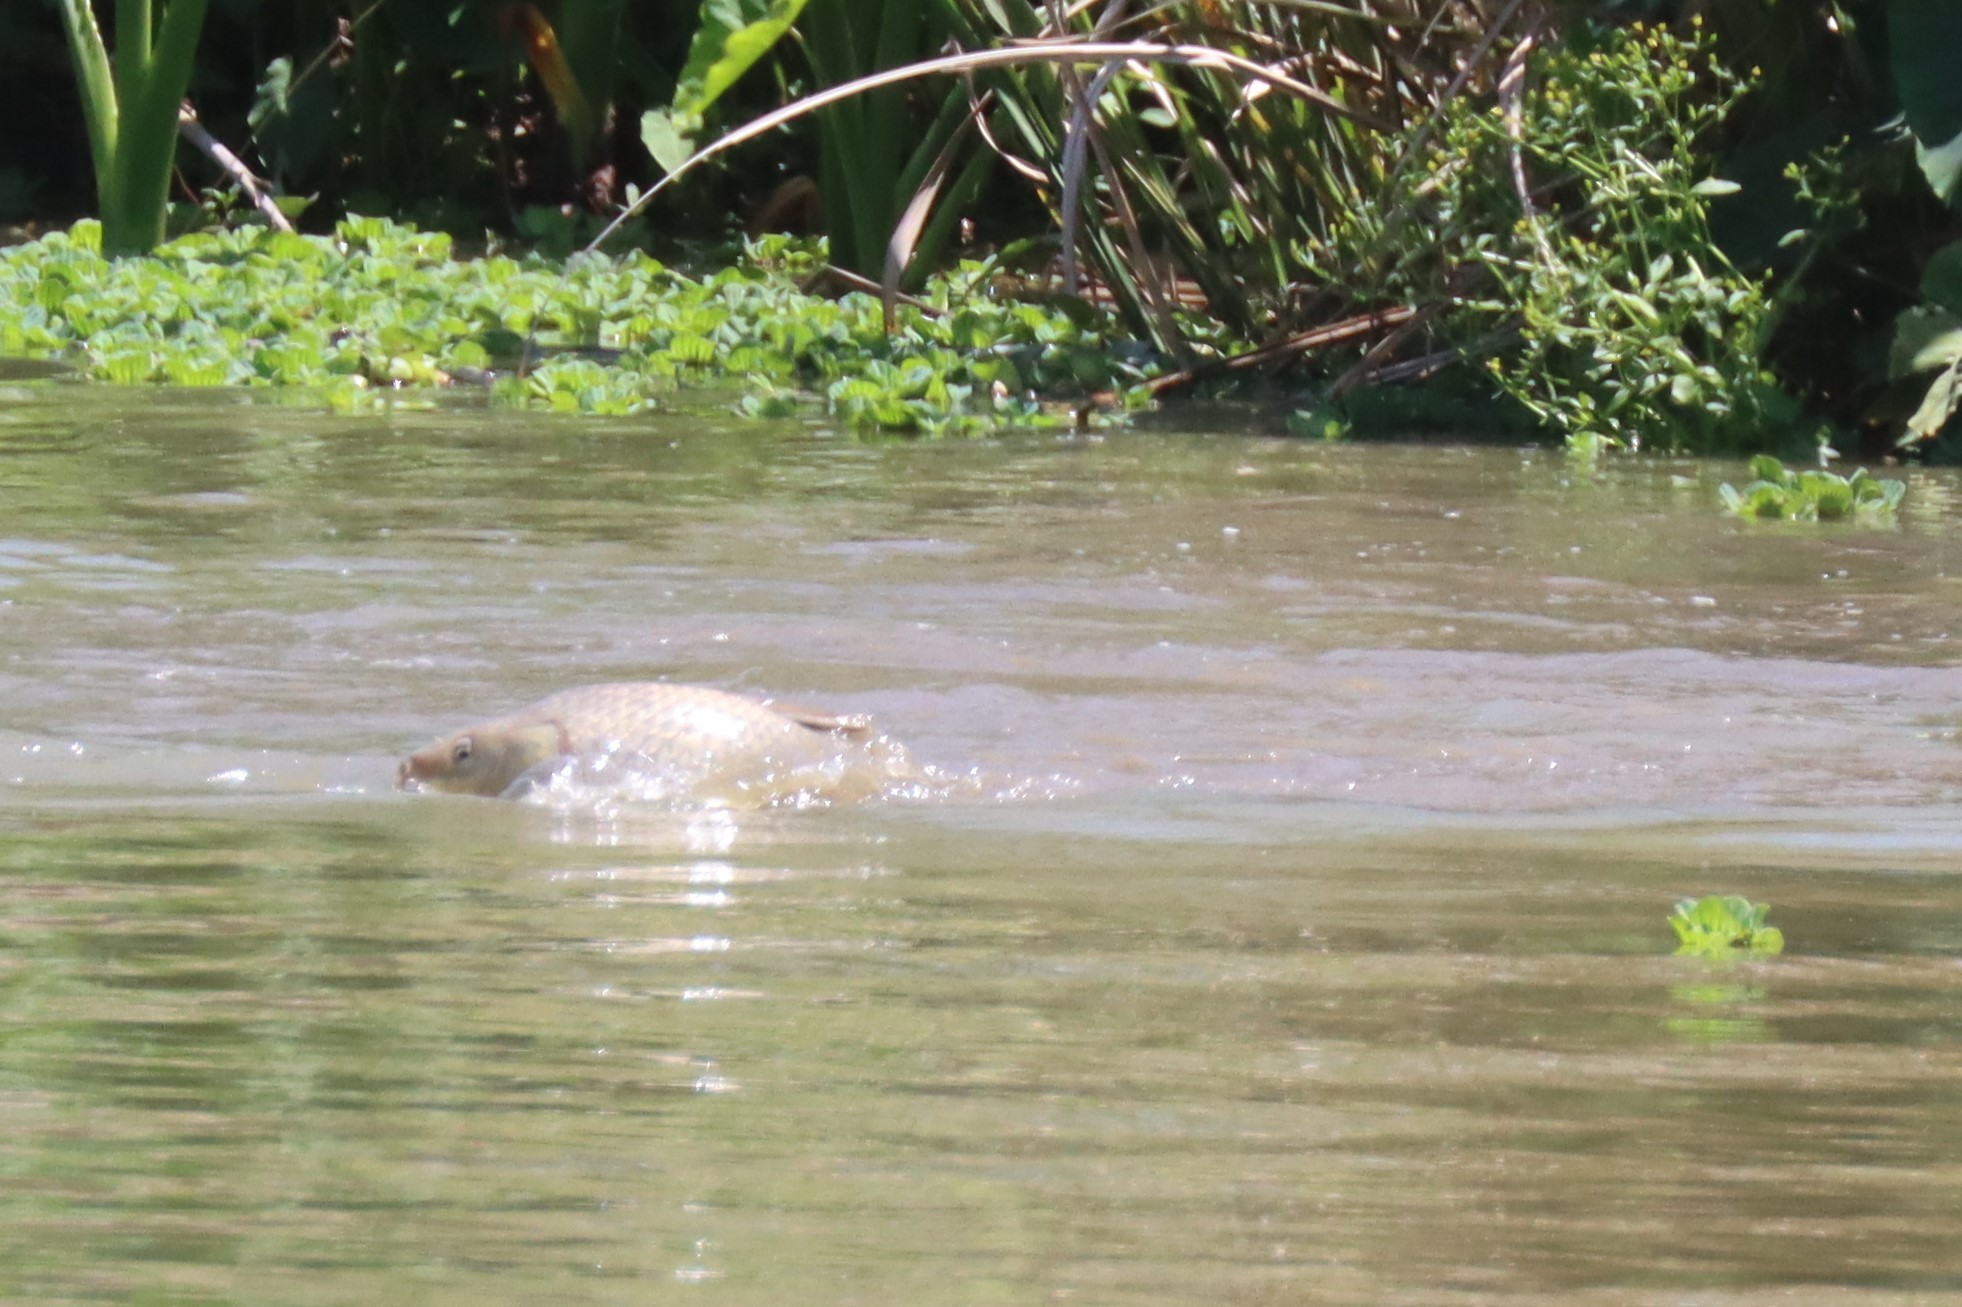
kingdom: Animalia
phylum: Chordata
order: Cypriniformes
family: Cyprinidae
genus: Cyprinus
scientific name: Cyprinus carpio
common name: Common carp
